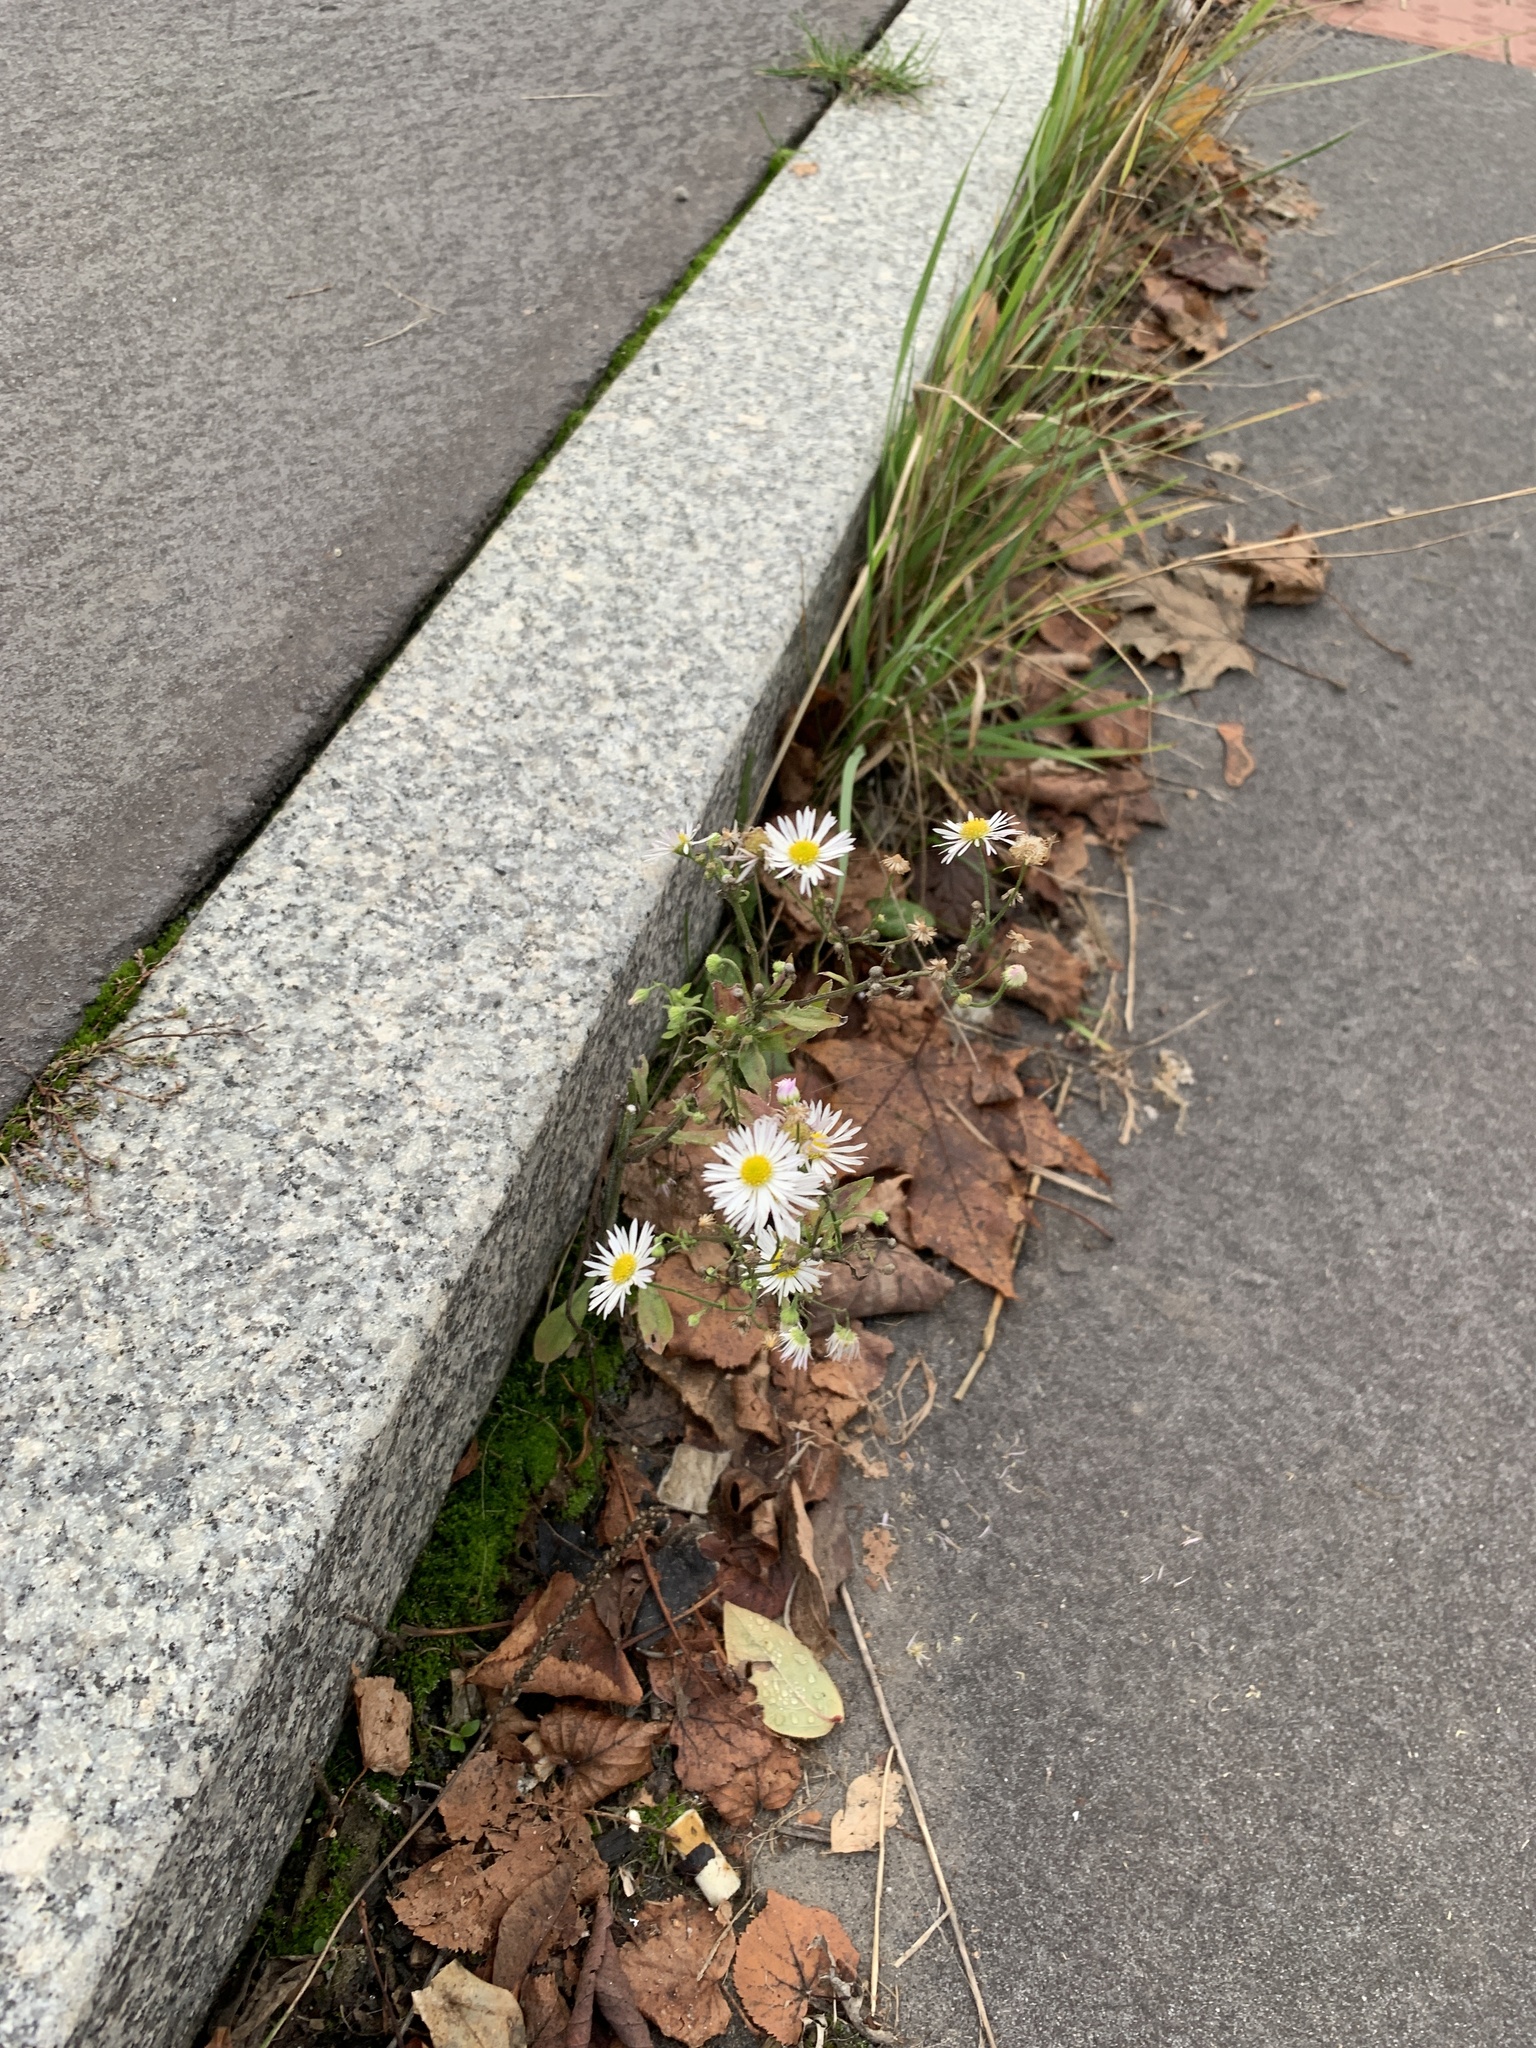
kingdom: Plantae
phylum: Tracheophyta
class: Magnoliopsida
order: Asterales
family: Asteraceae
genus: Erigeron
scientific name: Erigeron annuus
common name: Tall fleabane
